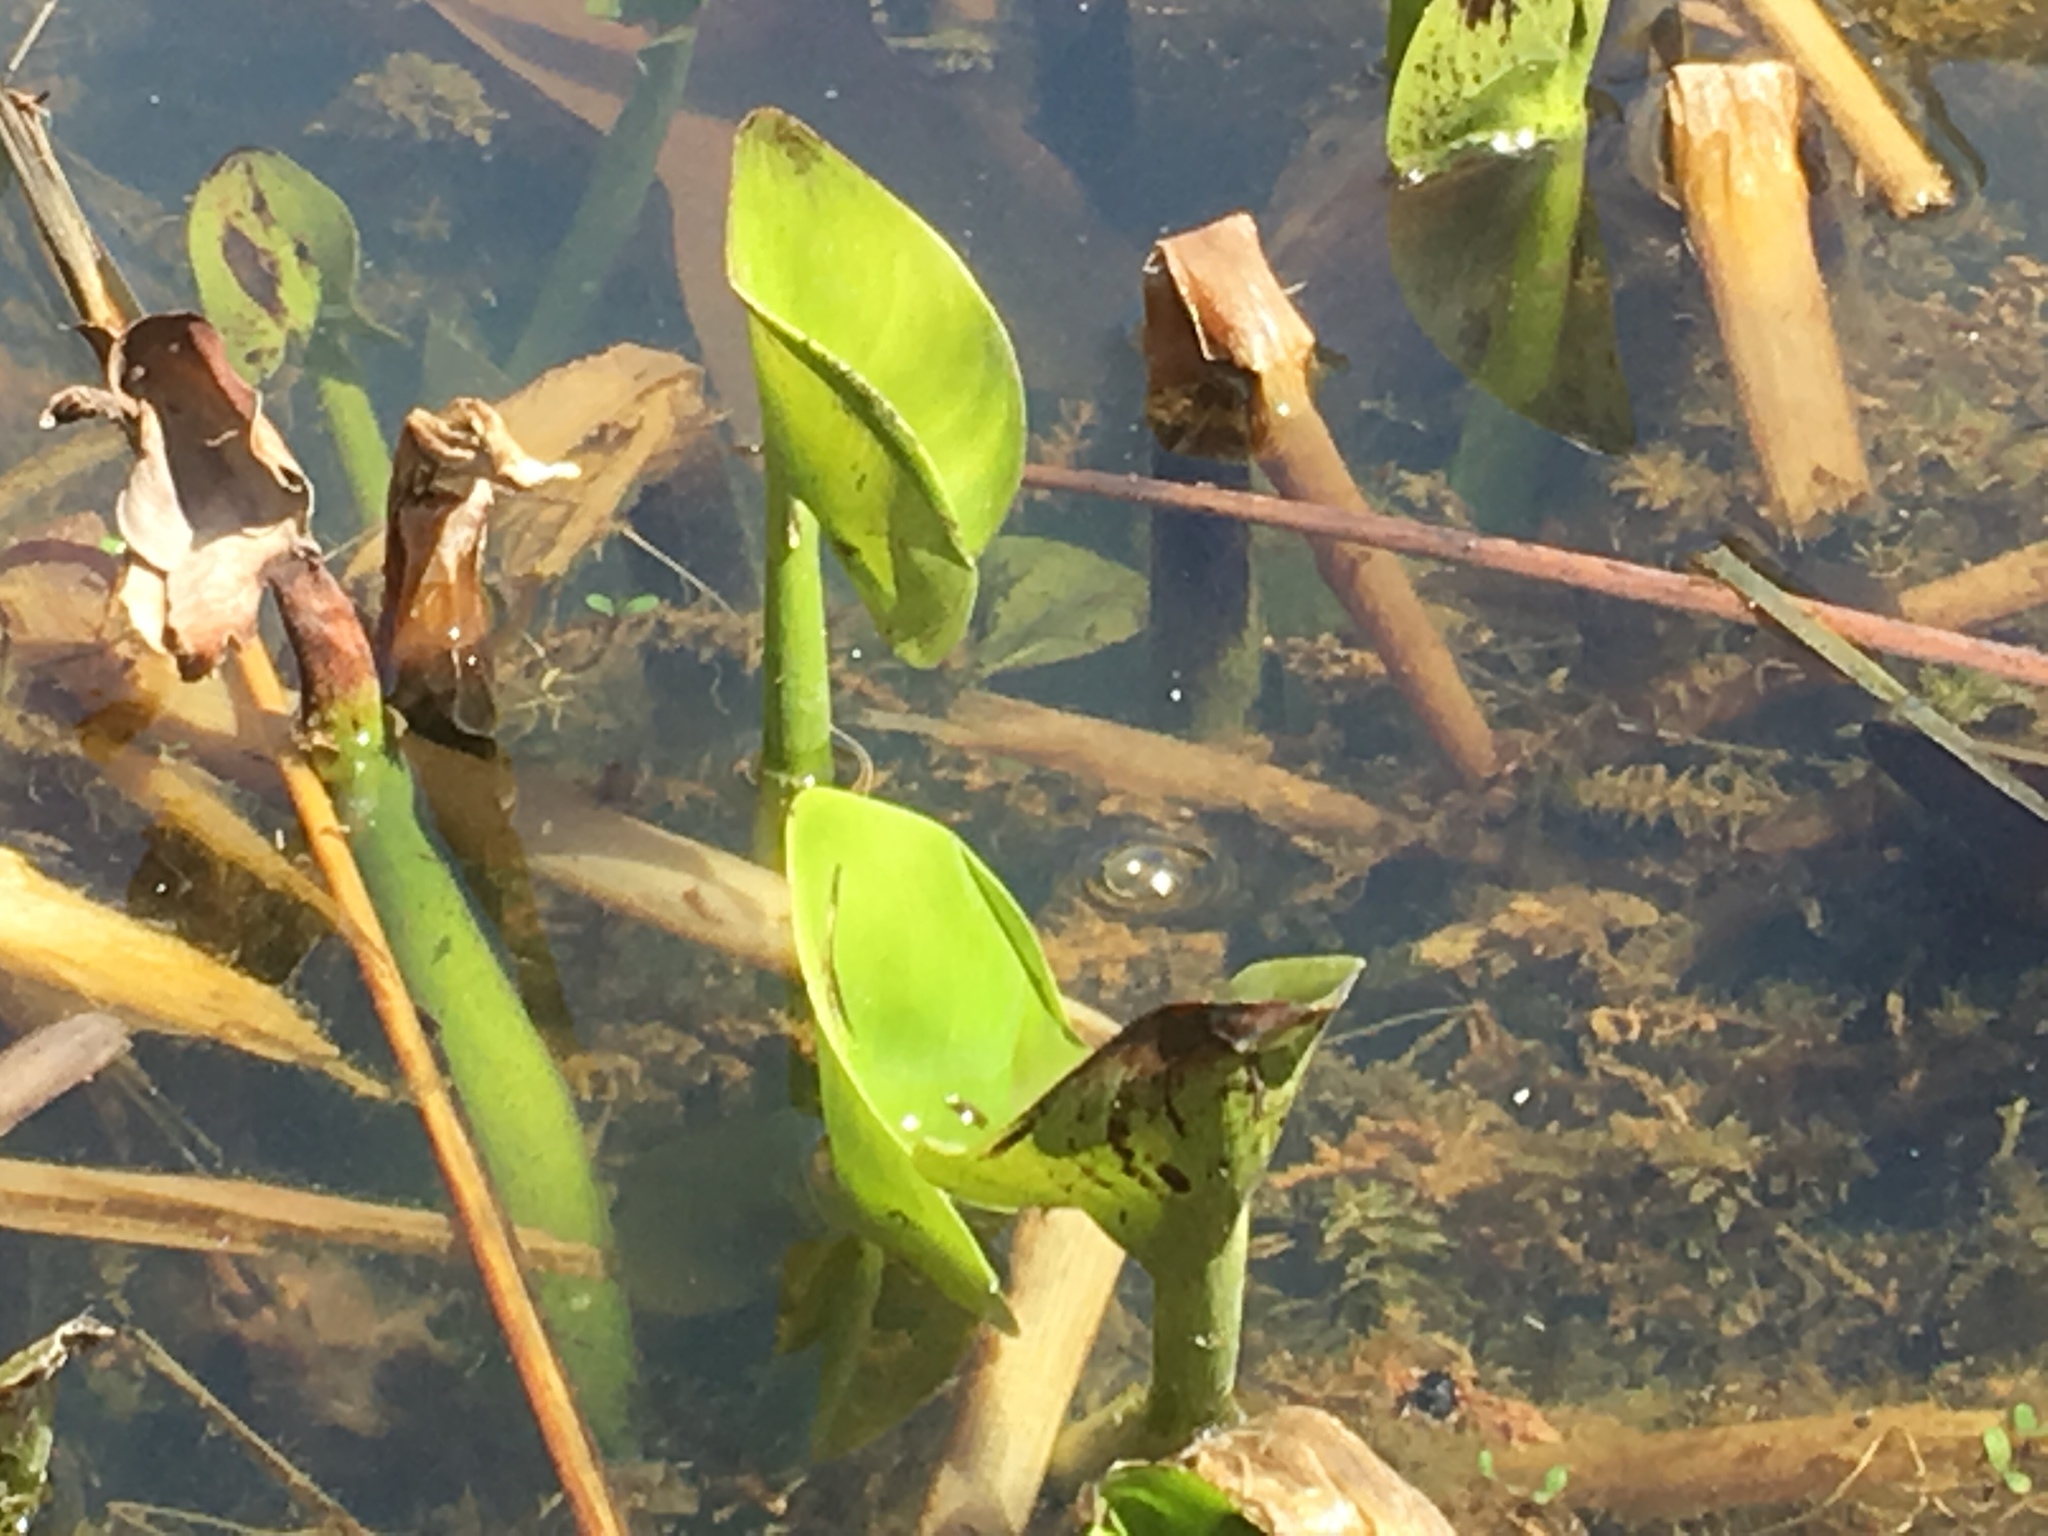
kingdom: Plantae
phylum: Tracheophyta
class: Liliopsida
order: Commelinales
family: Pontederiaceae
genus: Pontederia
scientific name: Pontederia cordata
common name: Pickerelweed
